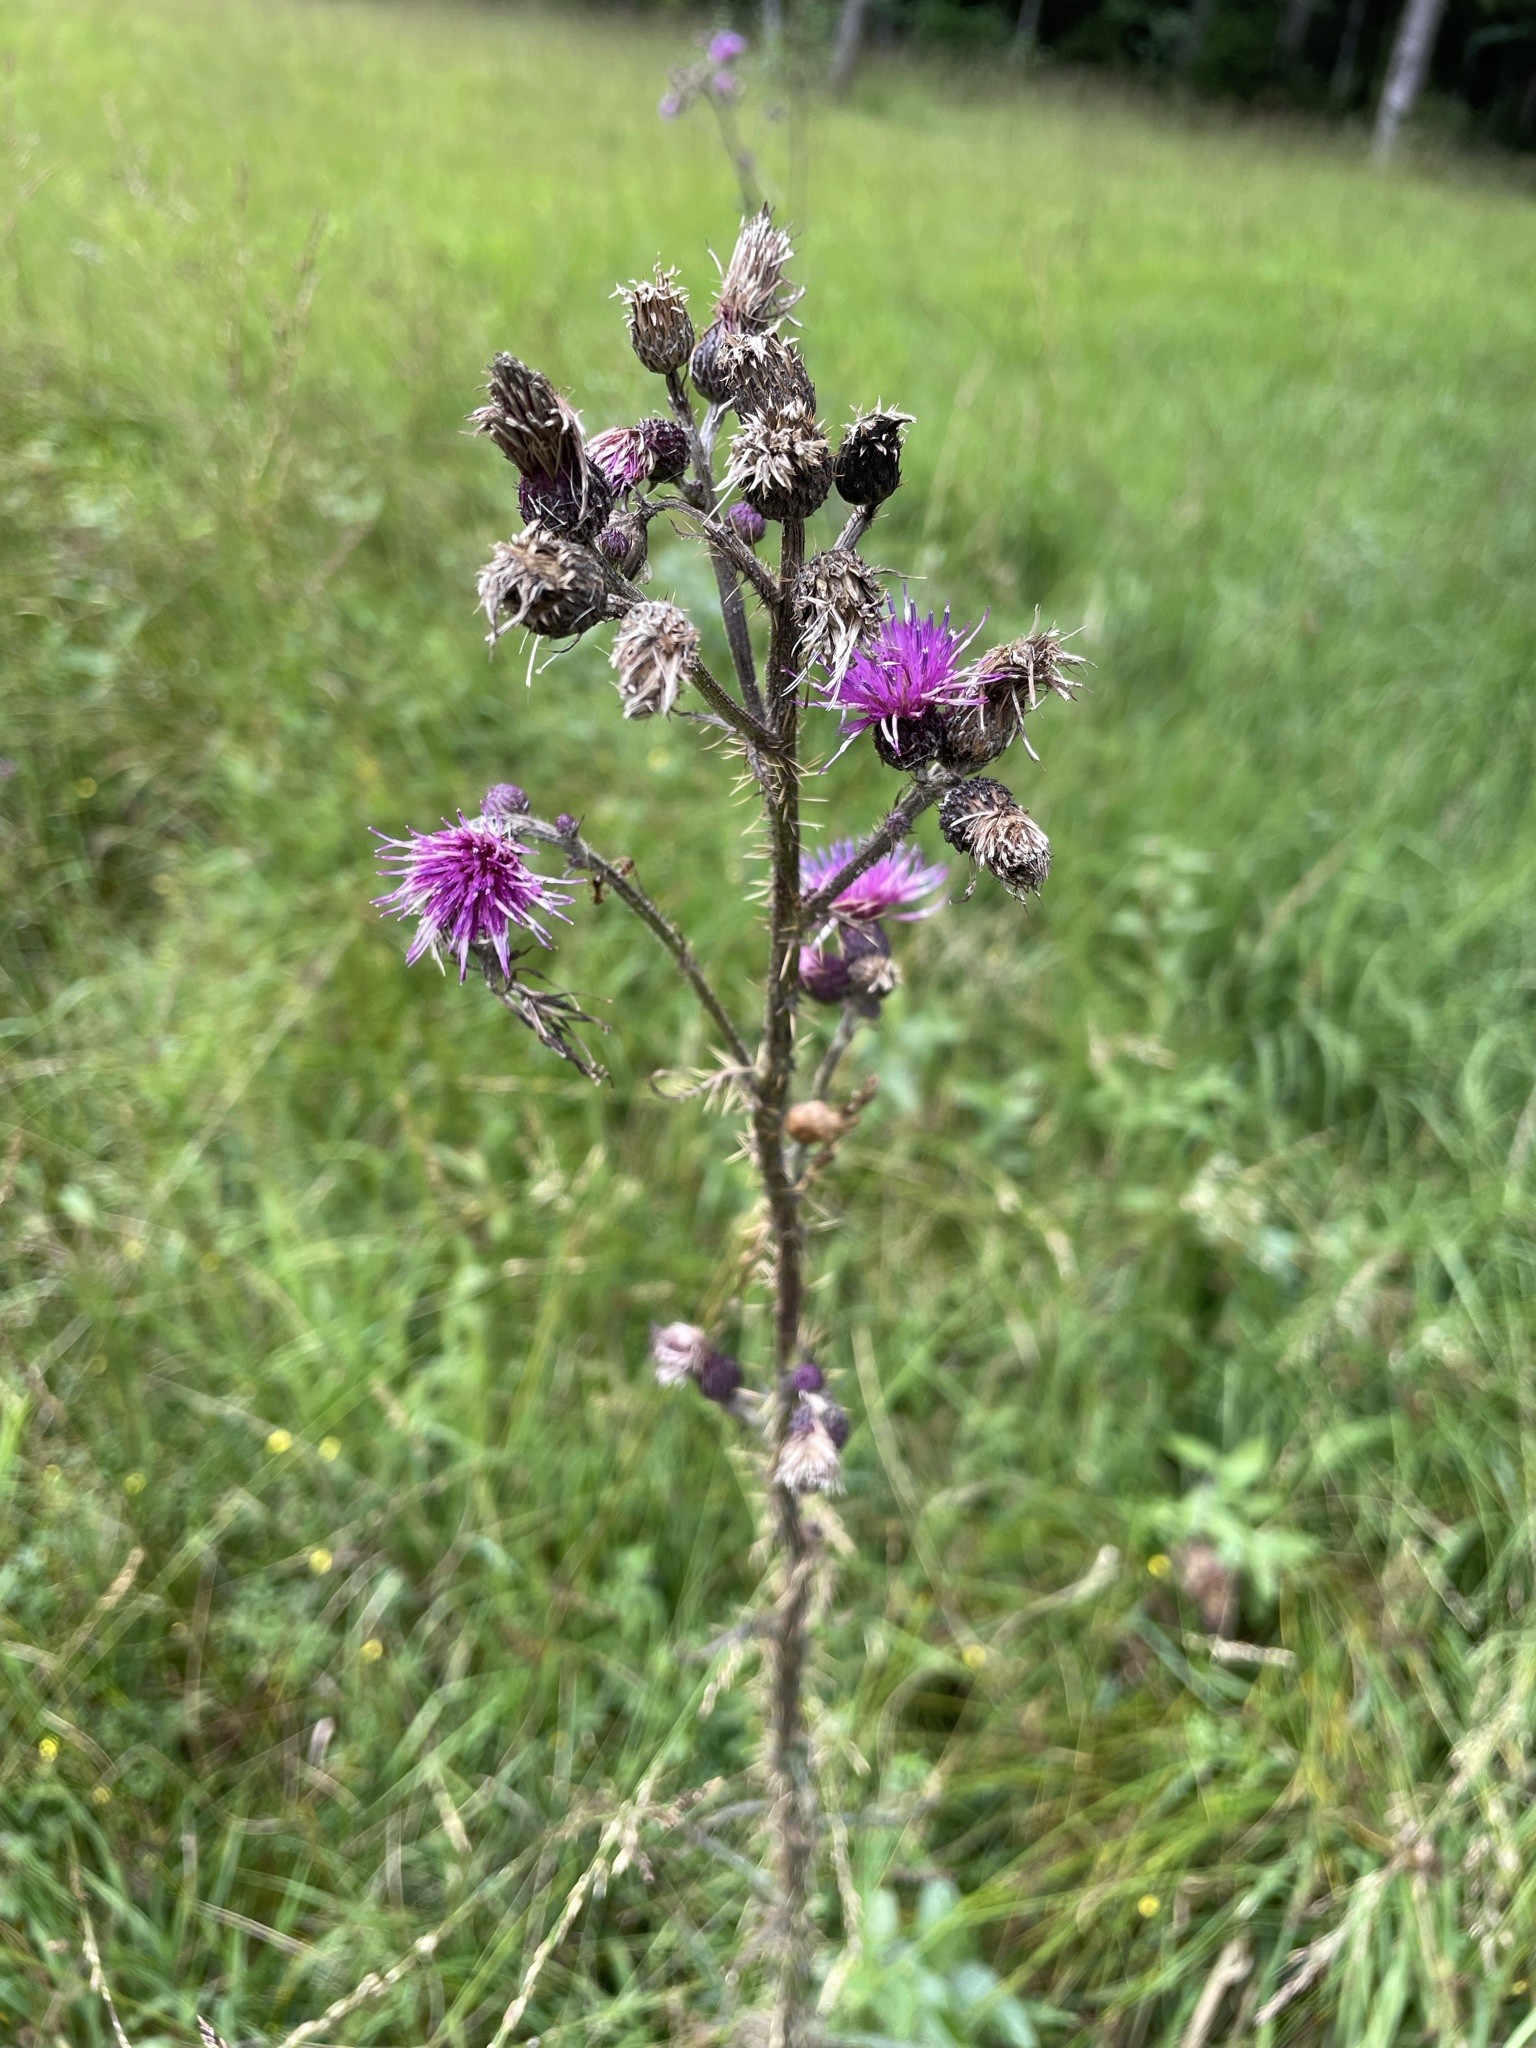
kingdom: Plantae
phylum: Tracheophyta
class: Magnoliopsida
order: Asterales
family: Asteraceae
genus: Cirsium
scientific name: Cirsium palustre
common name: Marsh thistle
